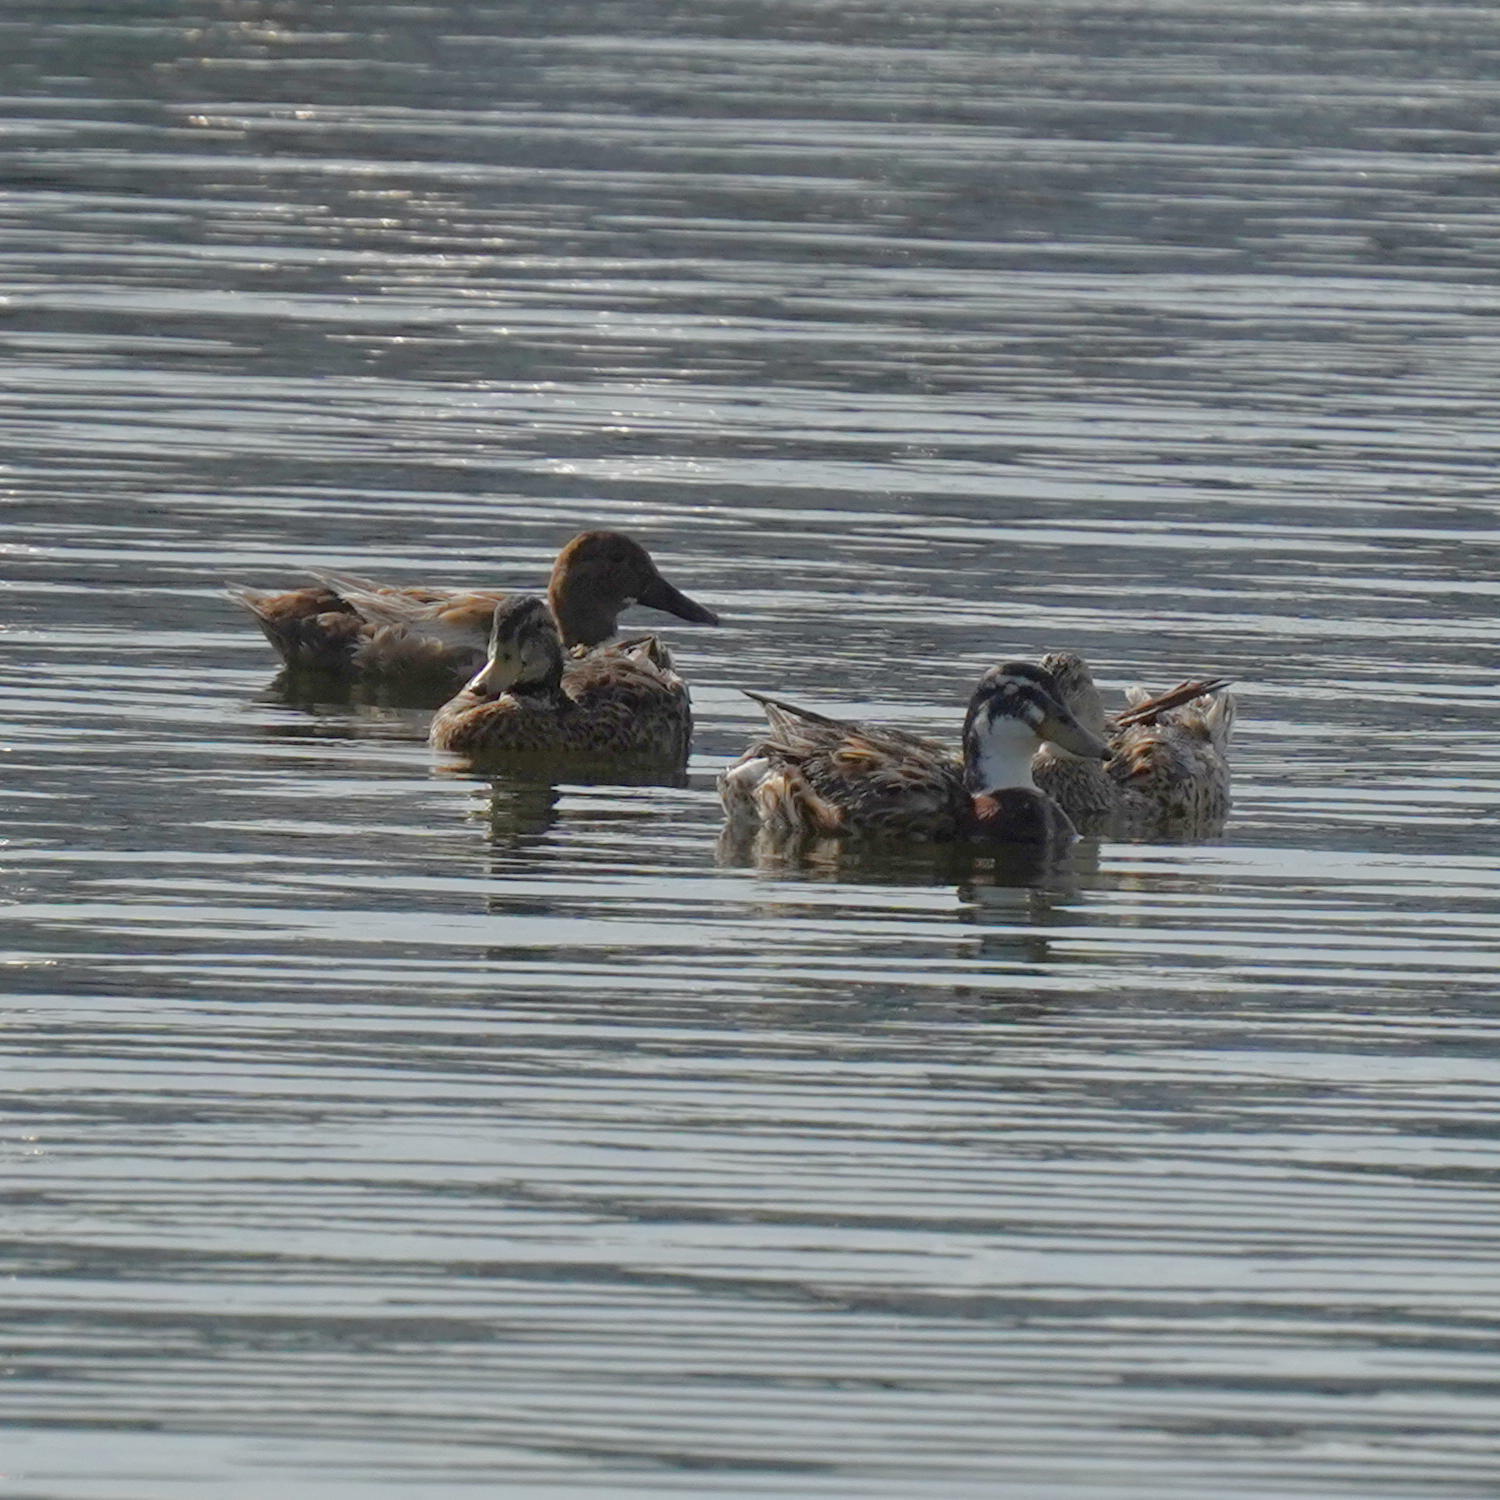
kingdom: Animalia
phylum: Chordata
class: Aves
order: Anseriformes
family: Anatidae
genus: Anas
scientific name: Anas platyrhynchos
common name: Mallard
